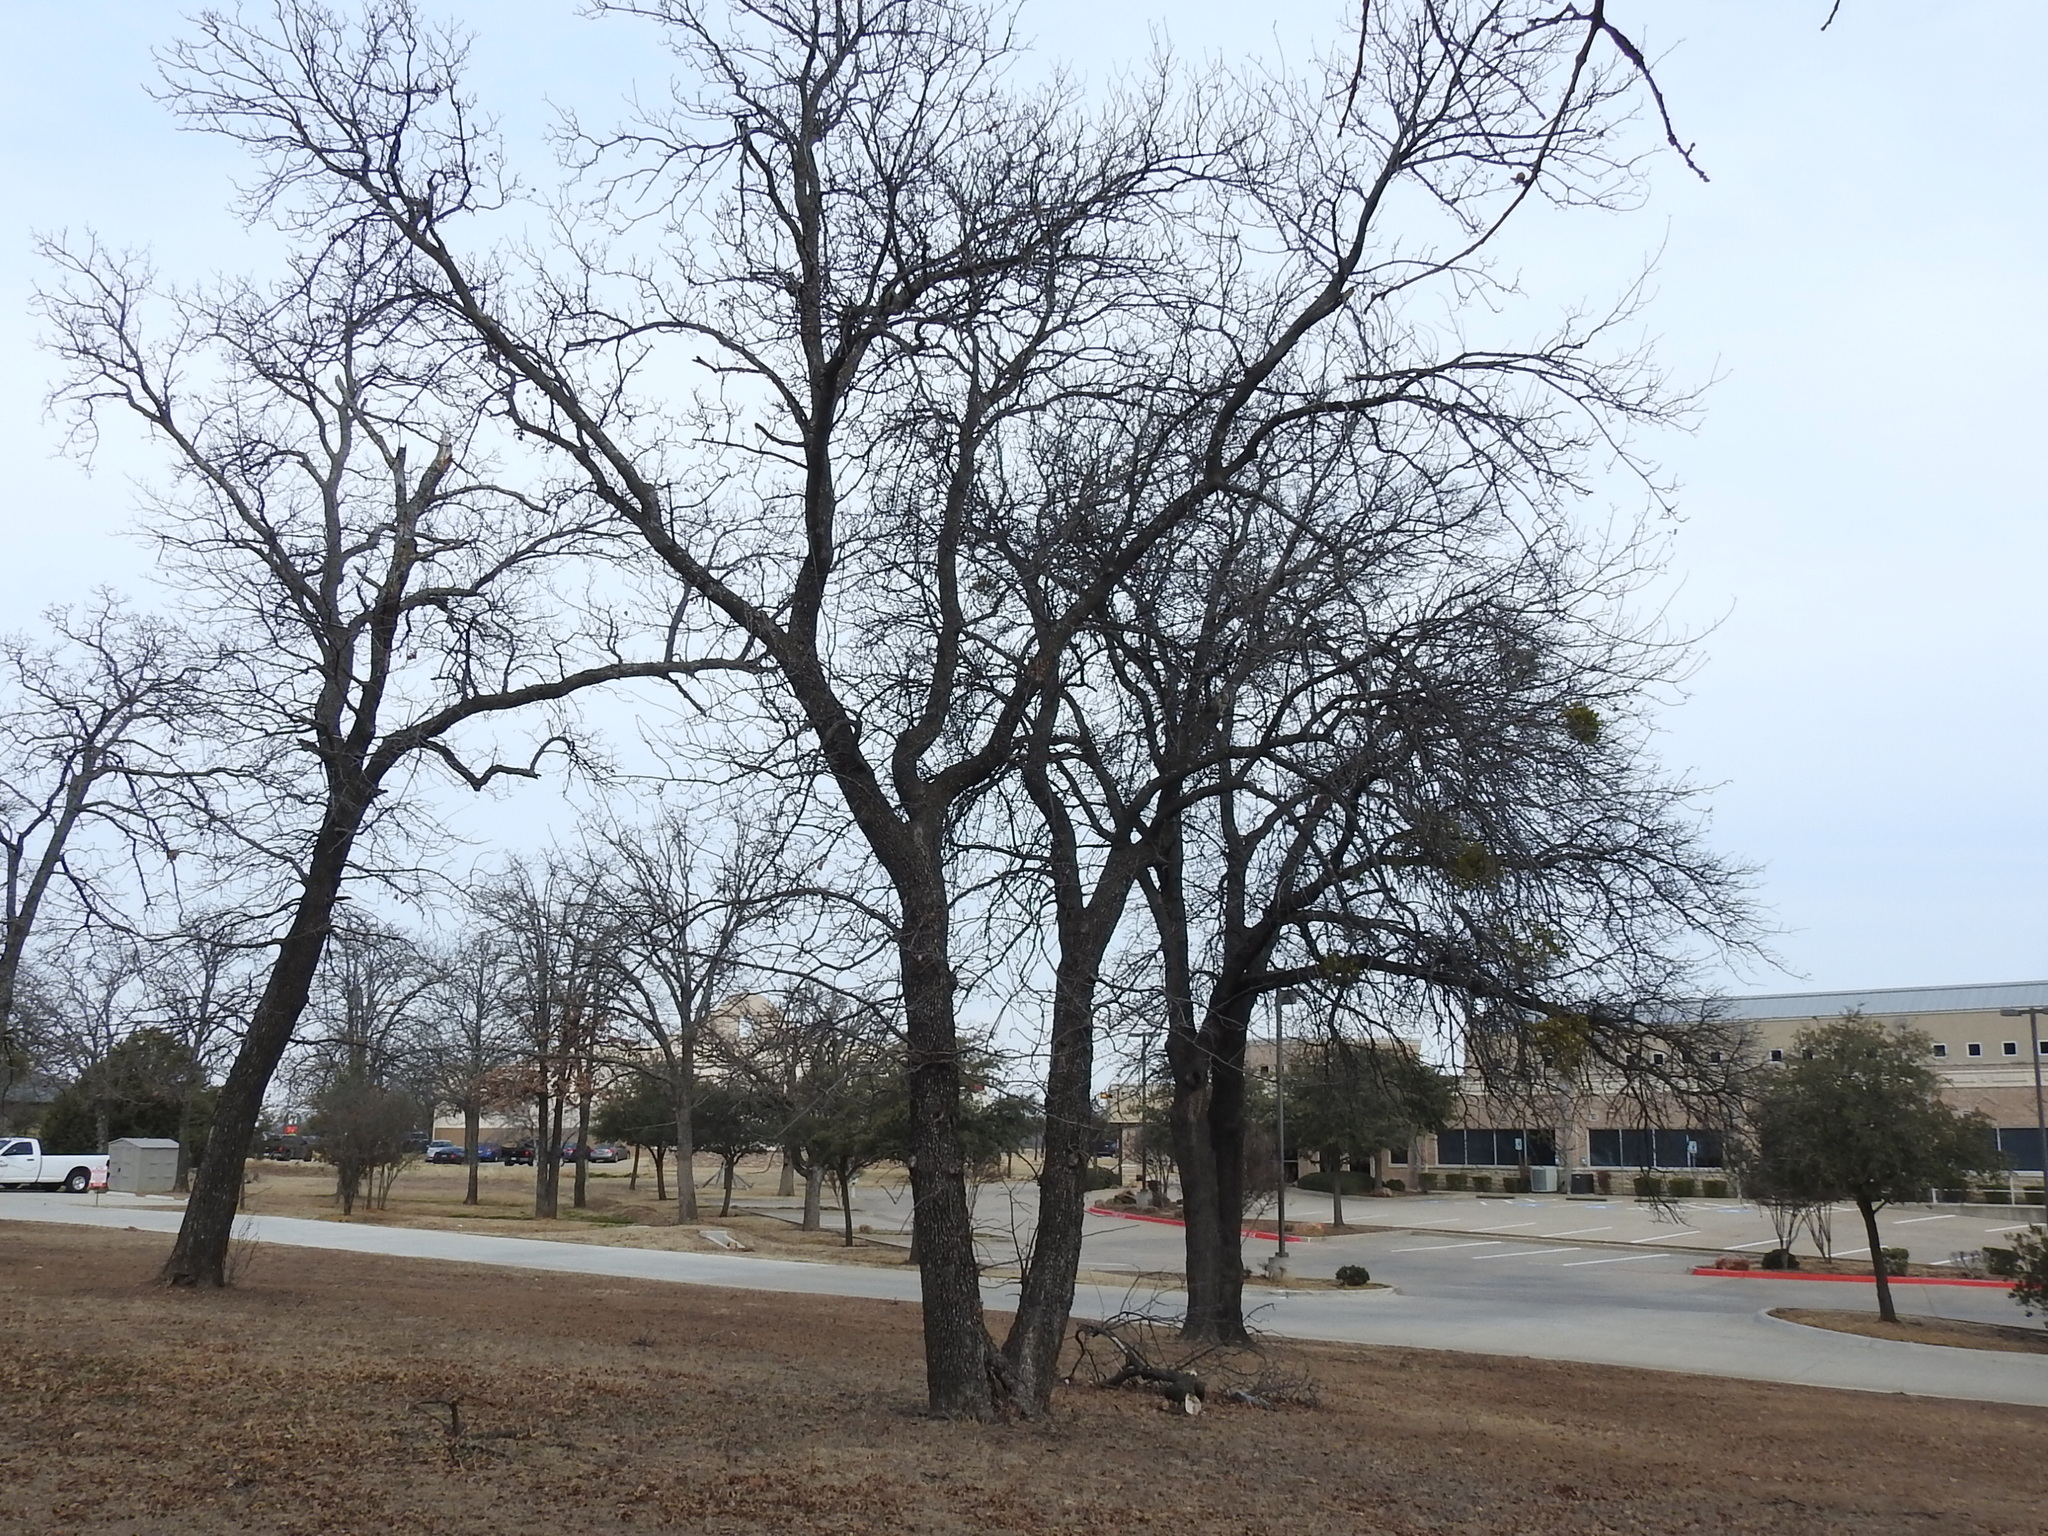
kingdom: Plantae
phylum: Tracheophyta
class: Magnoliopsida
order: Fagales
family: Juglandaceae
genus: Juglans
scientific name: Juglans nigra
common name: Black walnut
